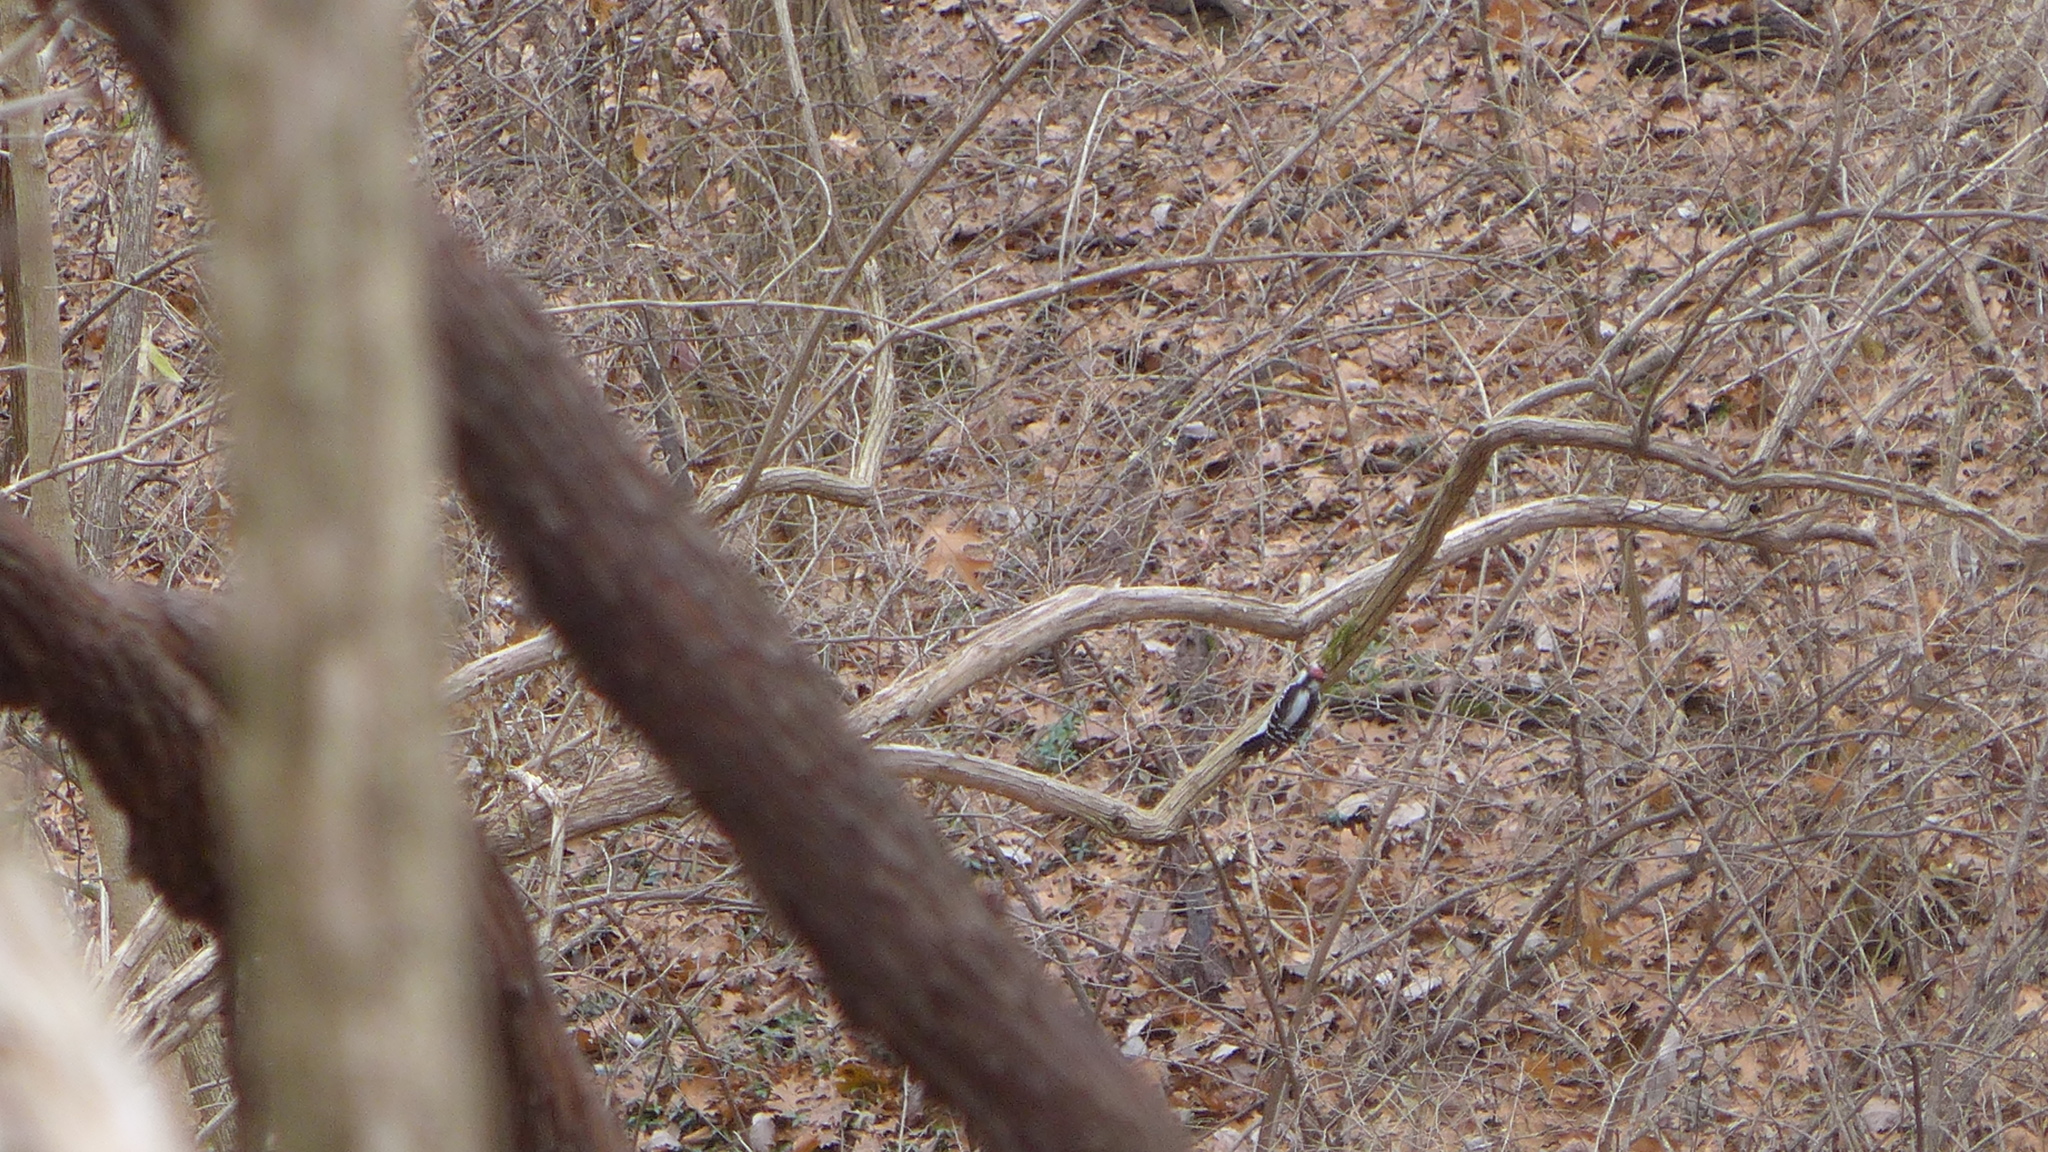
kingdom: Animalia
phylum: Chordata
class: Aves
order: Piciformes
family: Picidae
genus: Dryobates
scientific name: Dryobates pubescens
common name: Downy woodpecker
